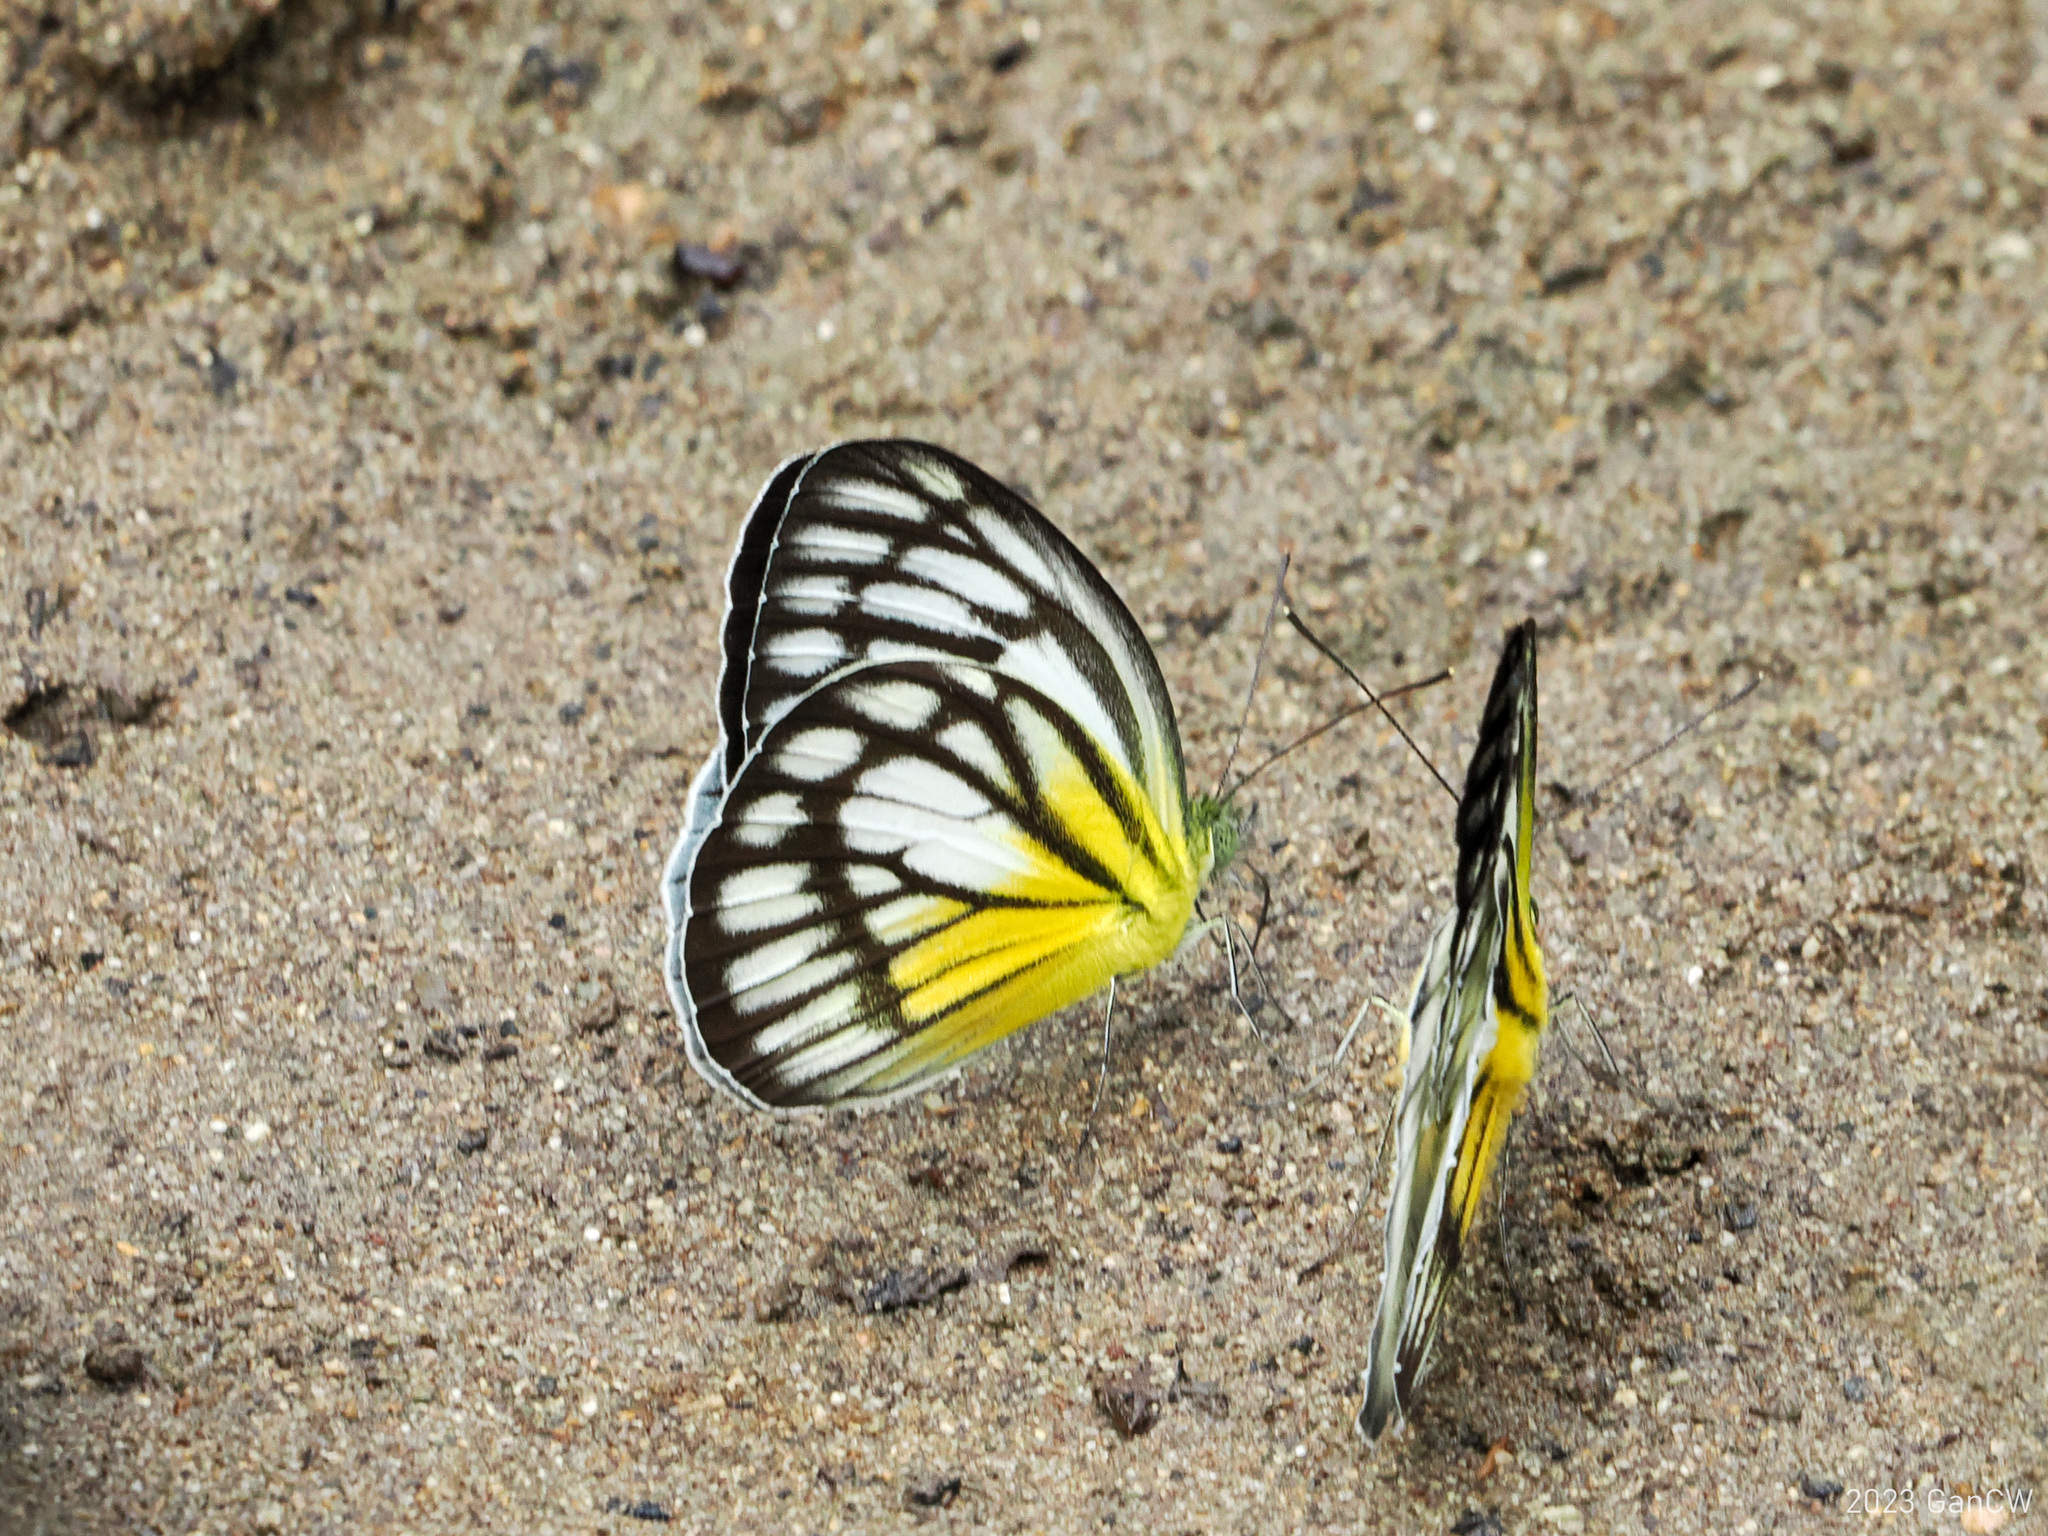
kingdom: Animalia
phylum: Arthropoda
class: Insecta
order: Lepidoptera
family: Pieridae
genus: Cepora
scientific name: Cepora eperia
